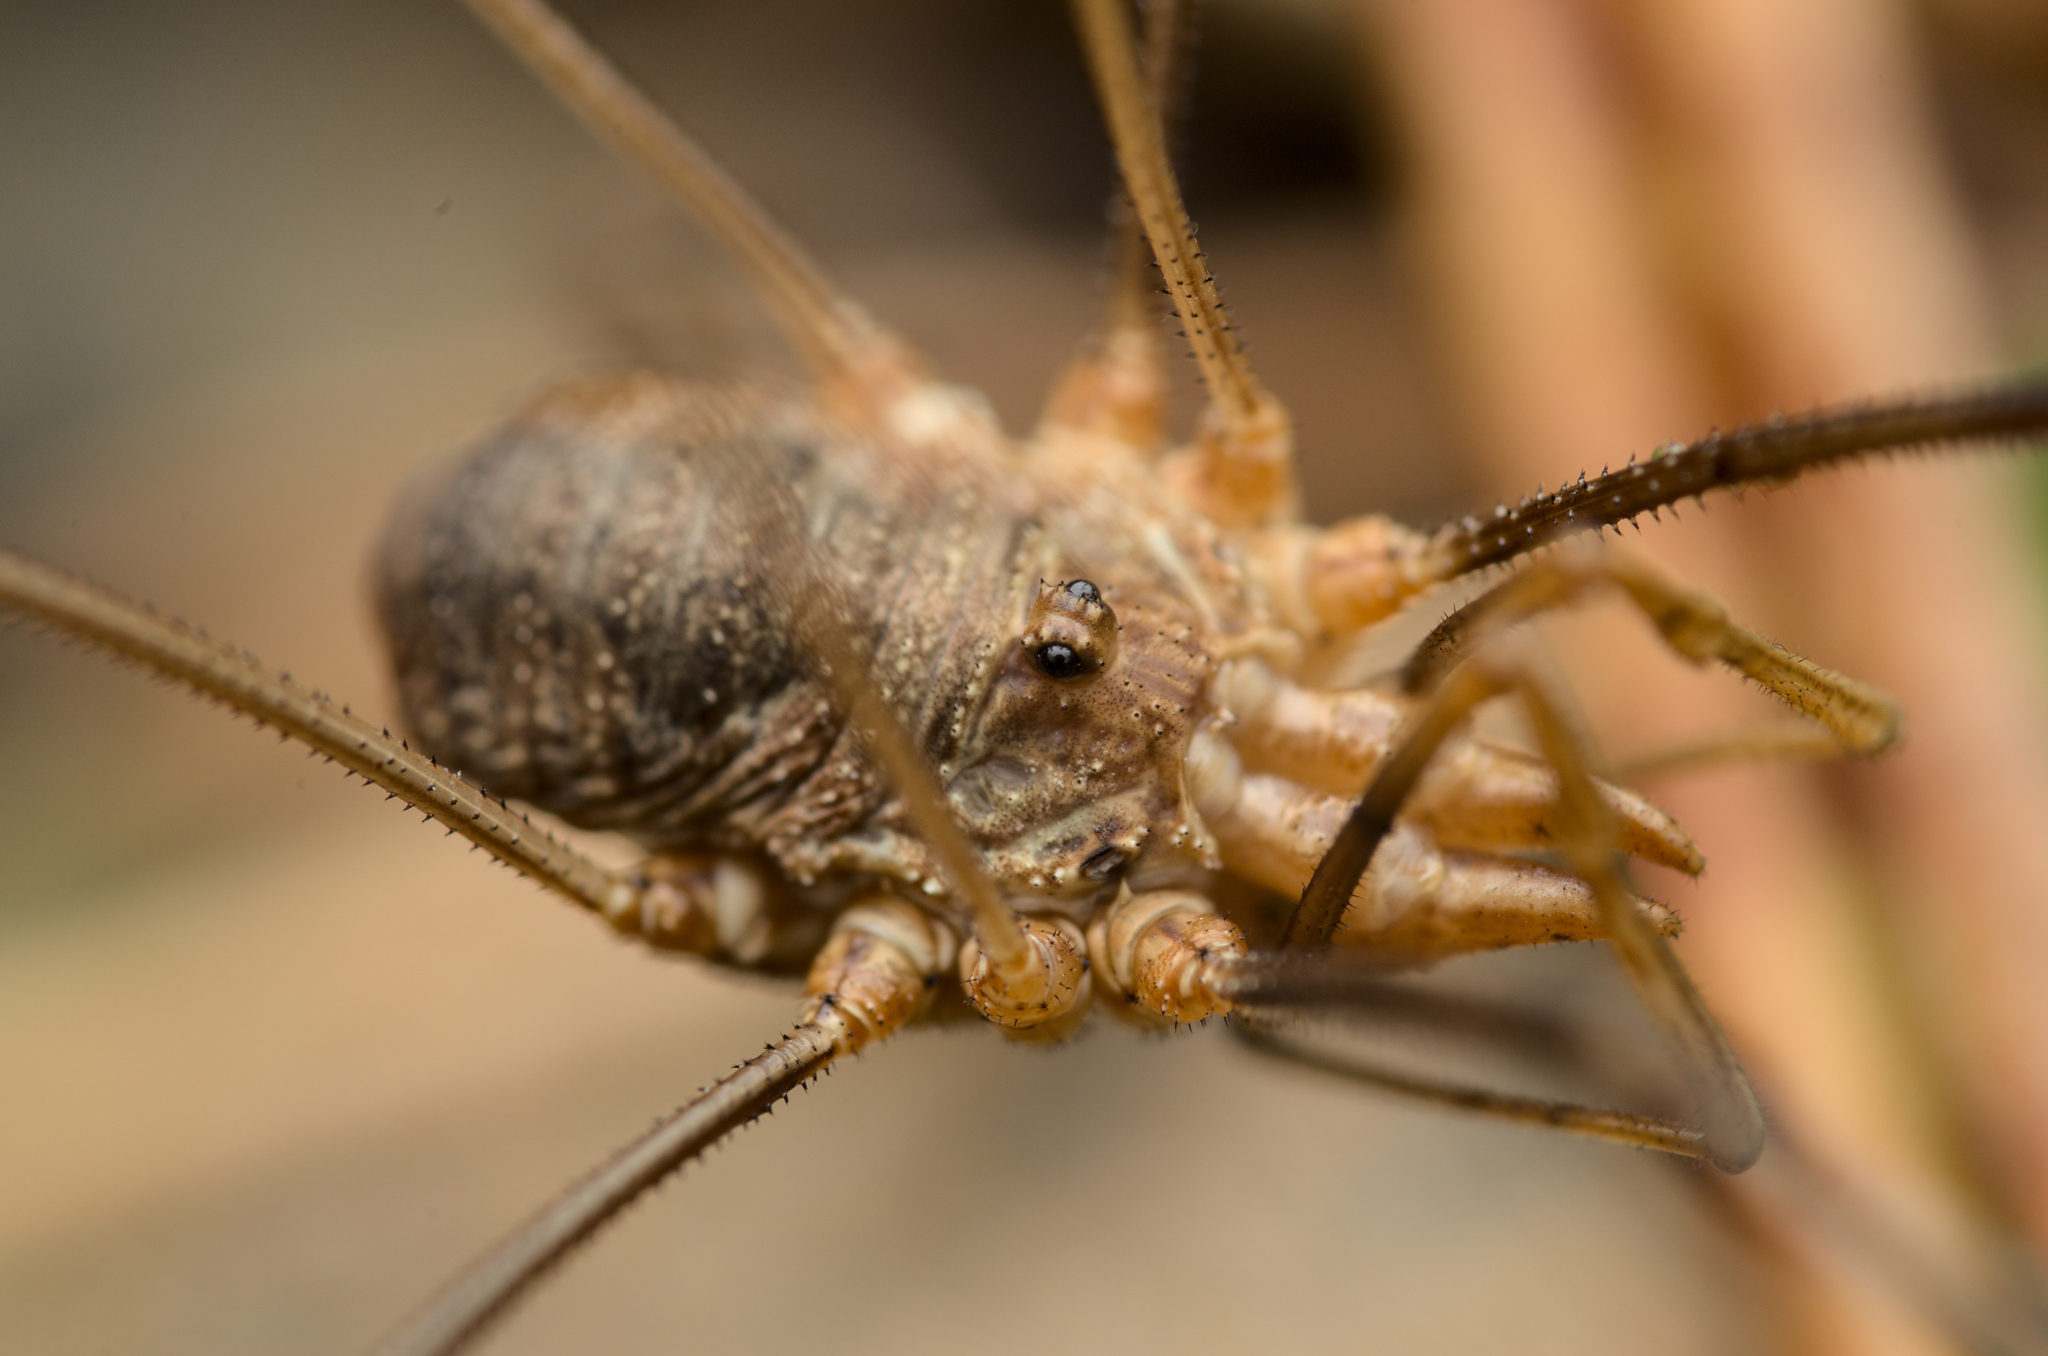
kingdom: Animalia
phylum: Arthropoda
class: Arachnida
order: Opiliones
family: Phalangiidae
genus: Phalangium
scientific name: Phalangium opilio
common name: Daddy longleg
